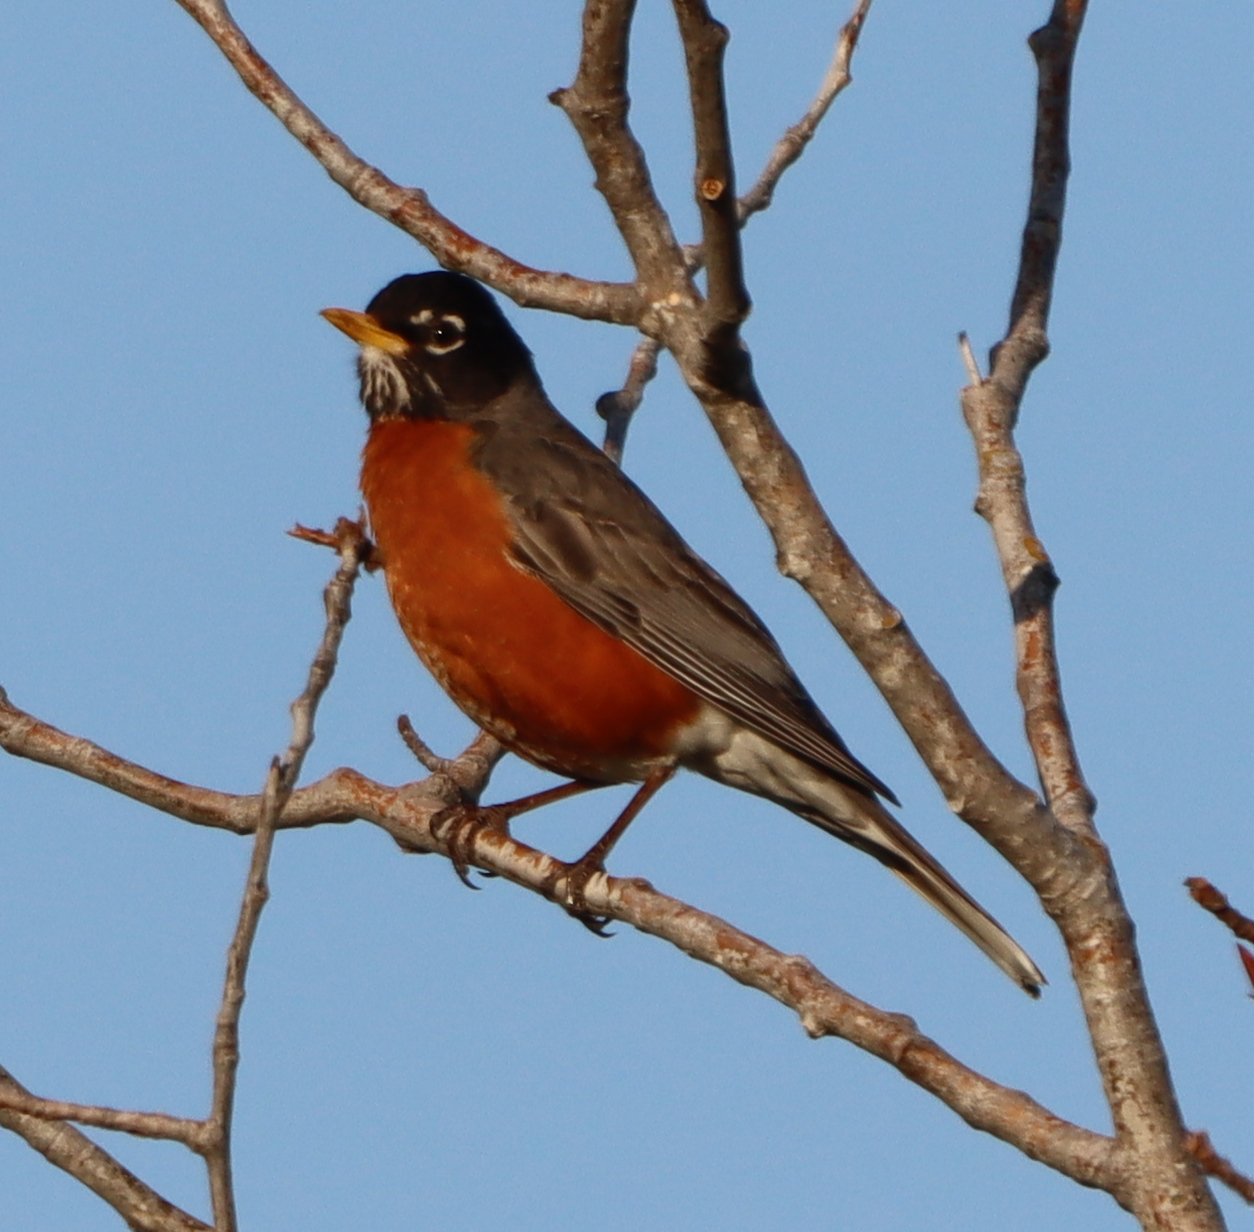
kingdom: Animalia
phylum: Chordata
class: Aves
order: Passeriformes
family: Turdidae
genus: Turdus
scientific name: Turdus migratorius
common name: American robin
